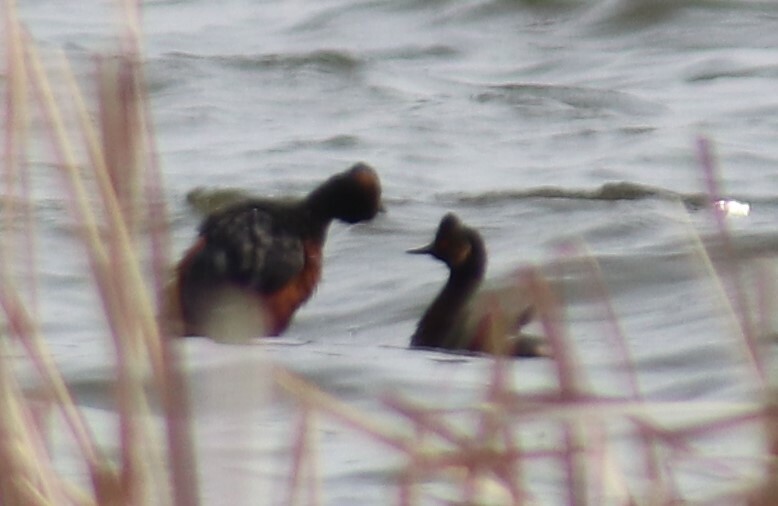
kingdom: Animalia
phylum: Chordata
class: Aves
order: Podicipediformes
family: Podicipedidae
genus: Podiceps
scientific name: Podiceps nigricollis
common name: Black-necked grebe
